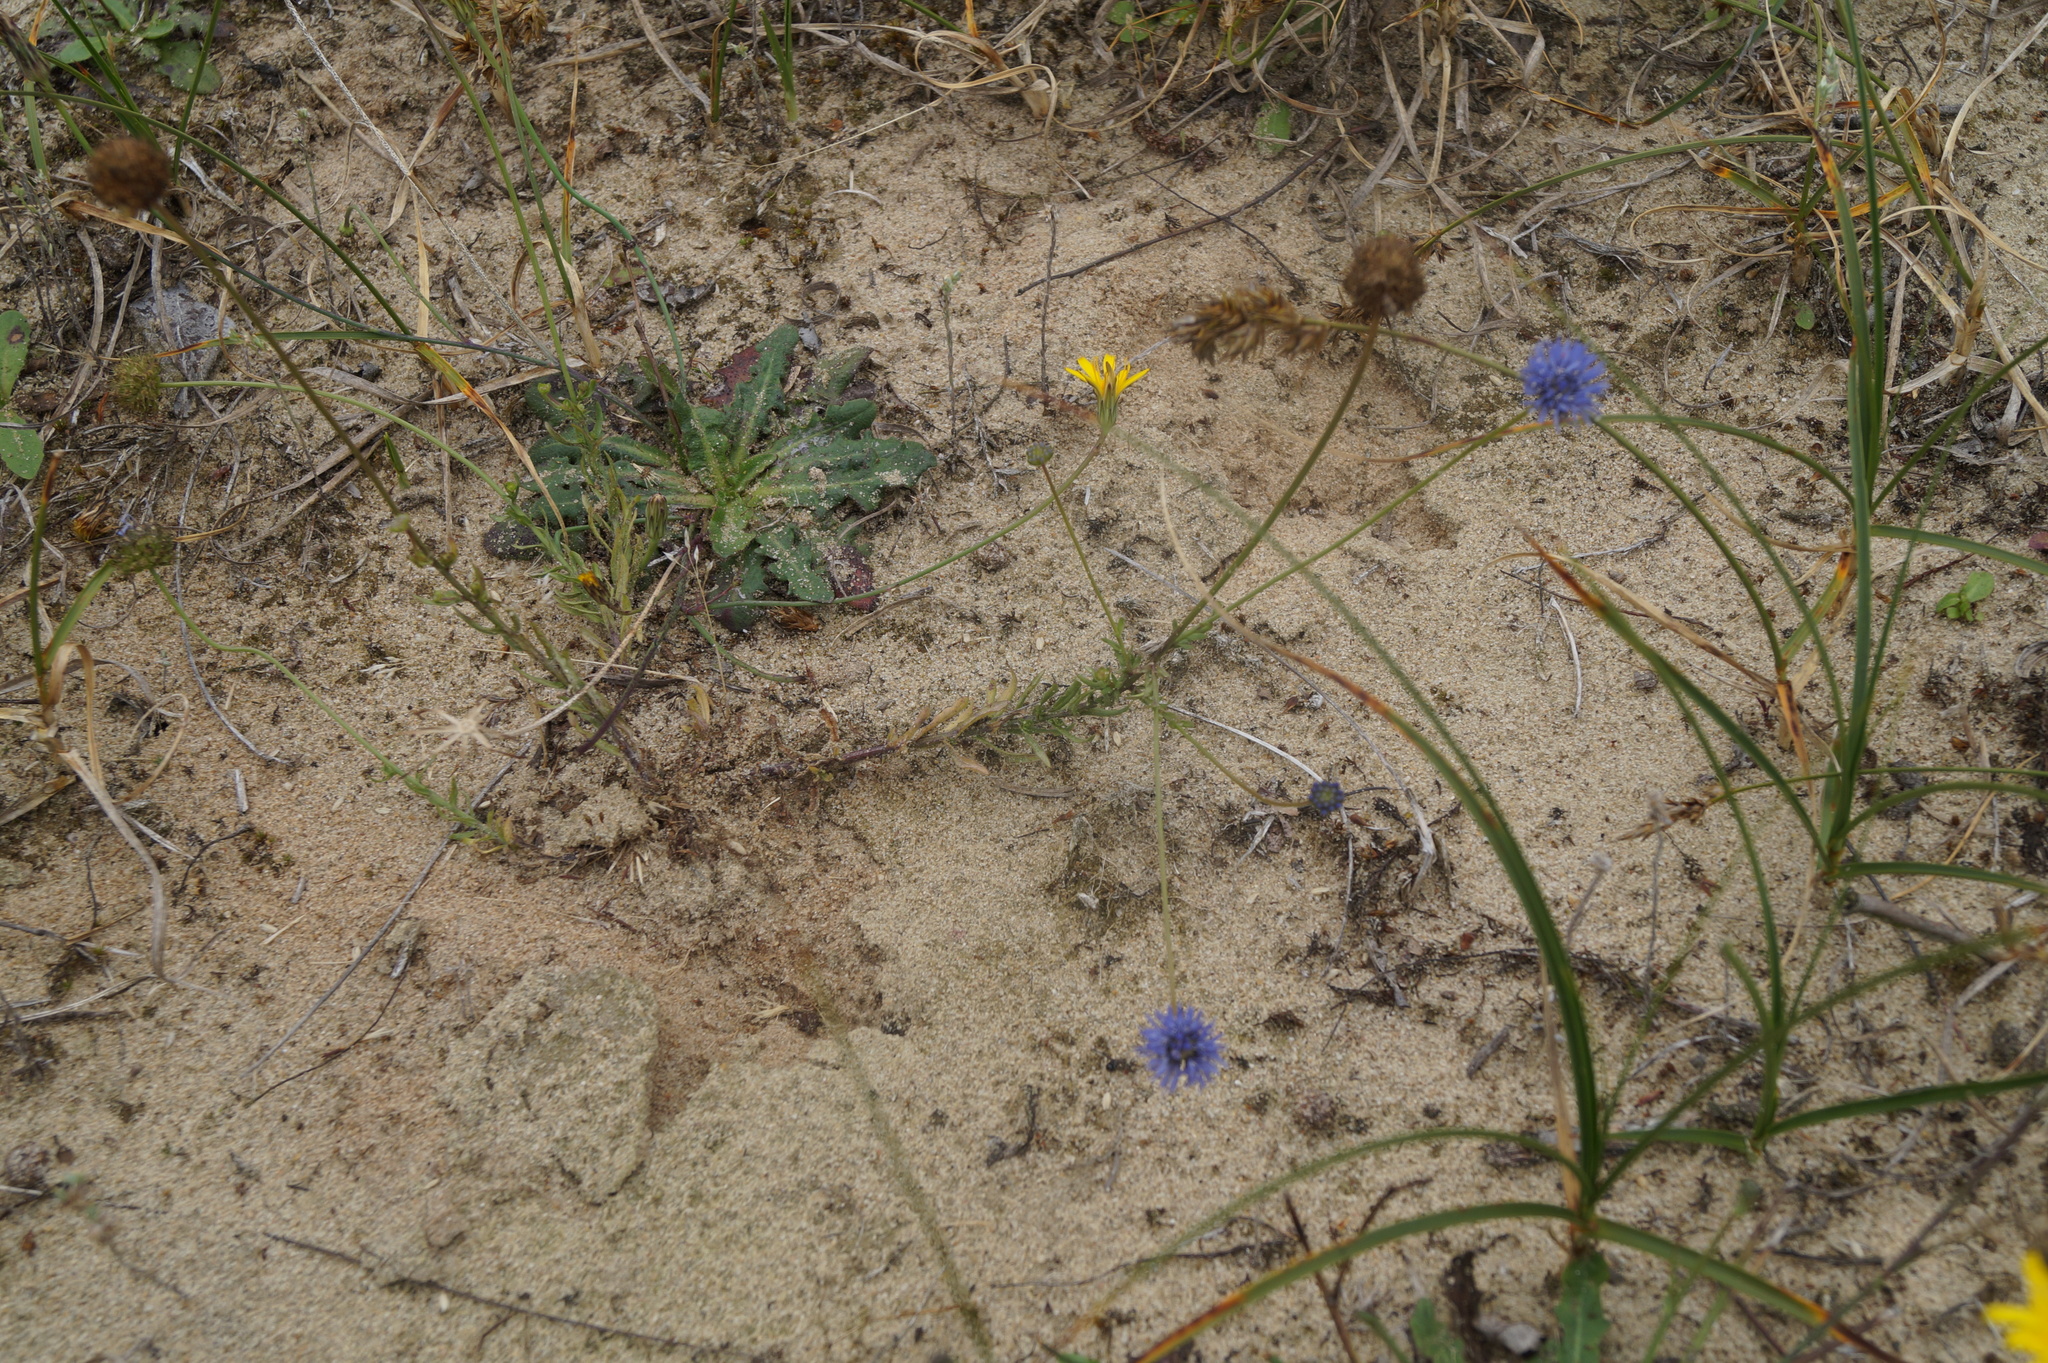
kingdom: Plantae
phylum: Tracheophyta
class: Magnoliopsida
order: Asterales
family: Campanulaceae
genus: Jasione
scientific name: Jasione montana
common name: Sheep's-bit
